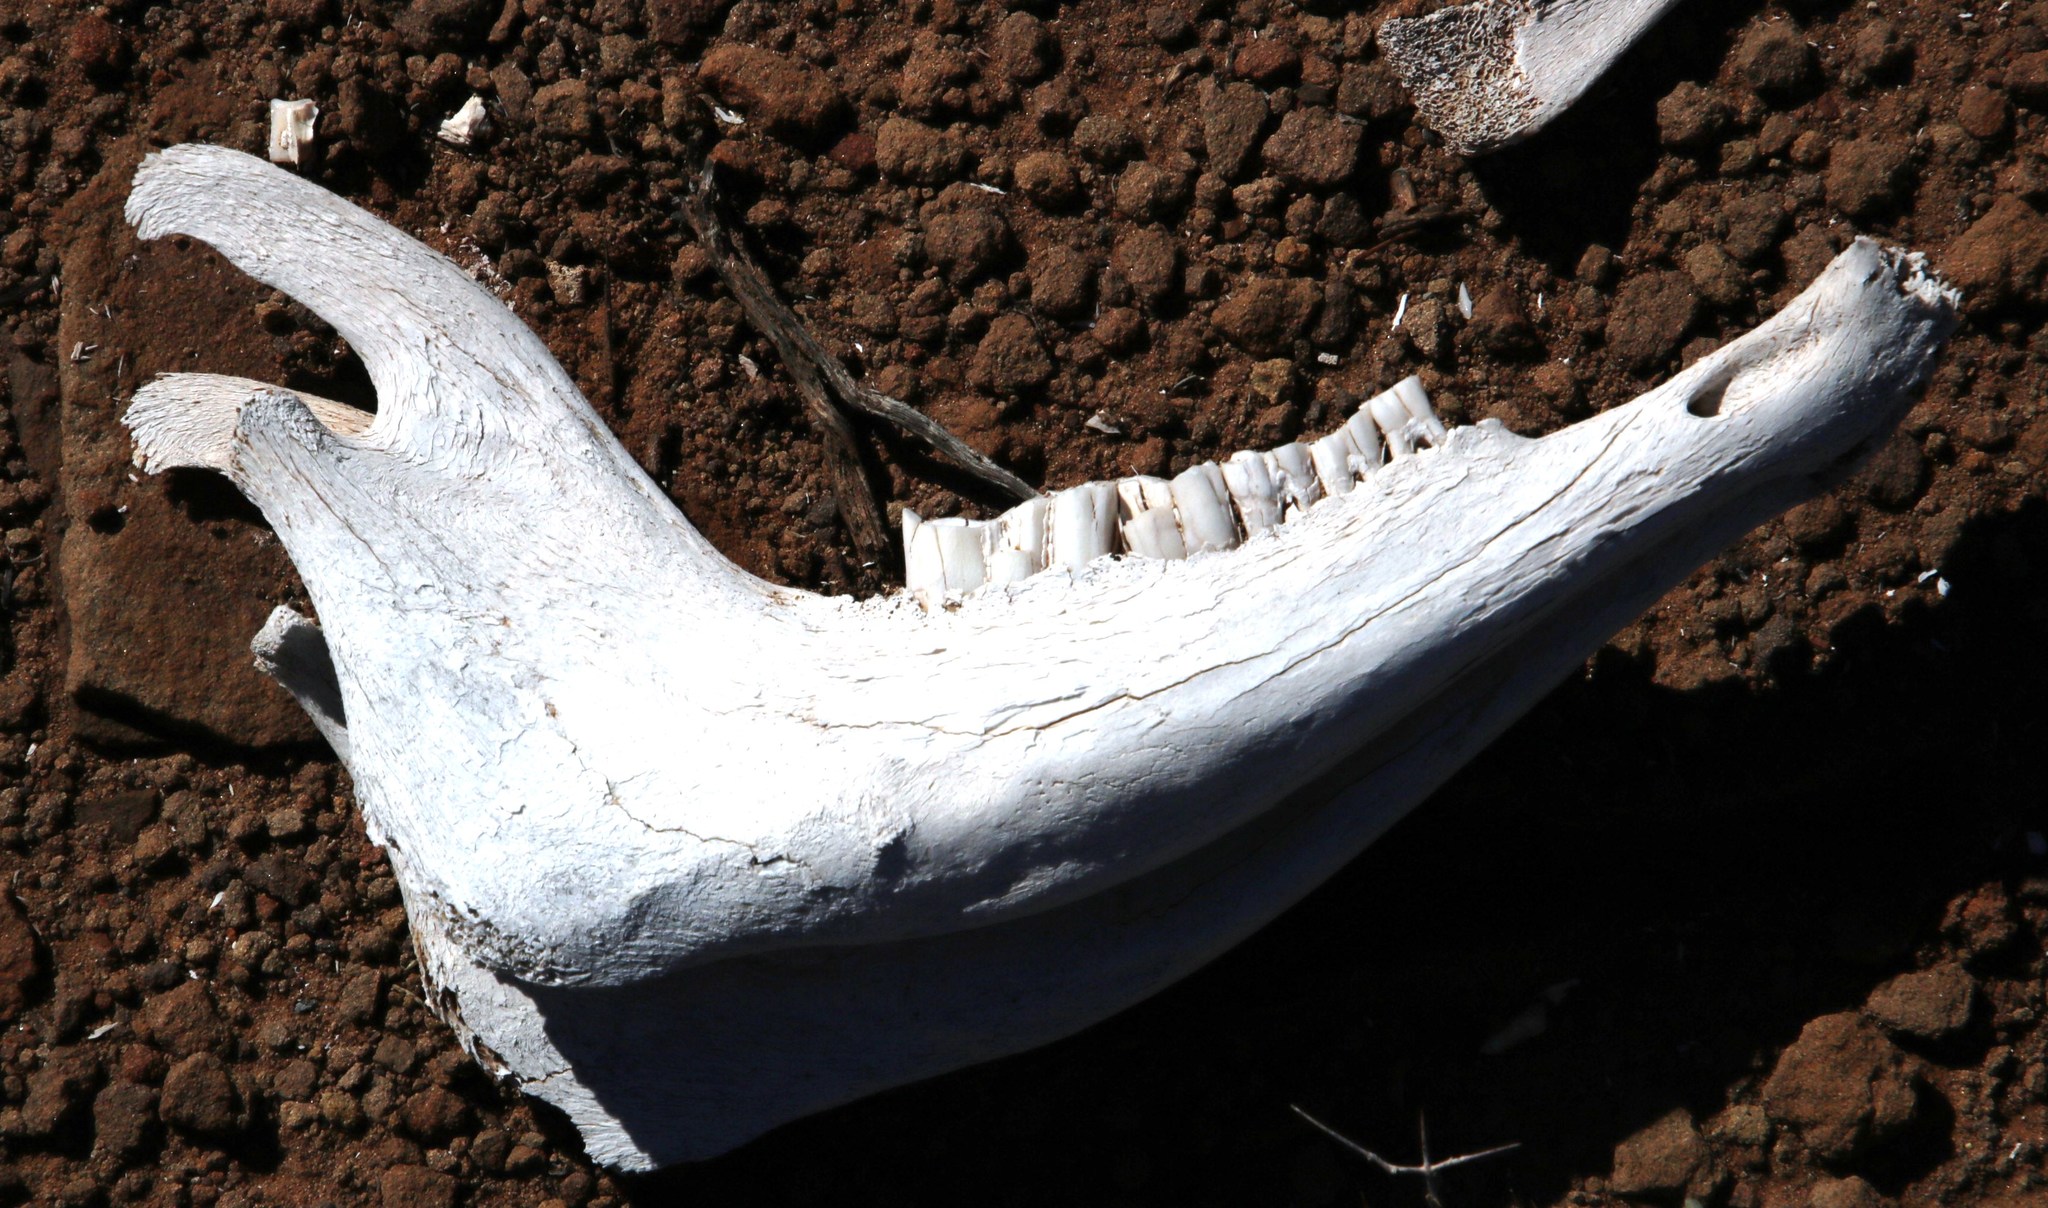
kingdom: Animalia
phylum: Chordata
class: Mammalia
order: Artiodactyla
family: Bovidae
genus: Ovis
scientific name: Ovis aries
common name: Domestic sheep
